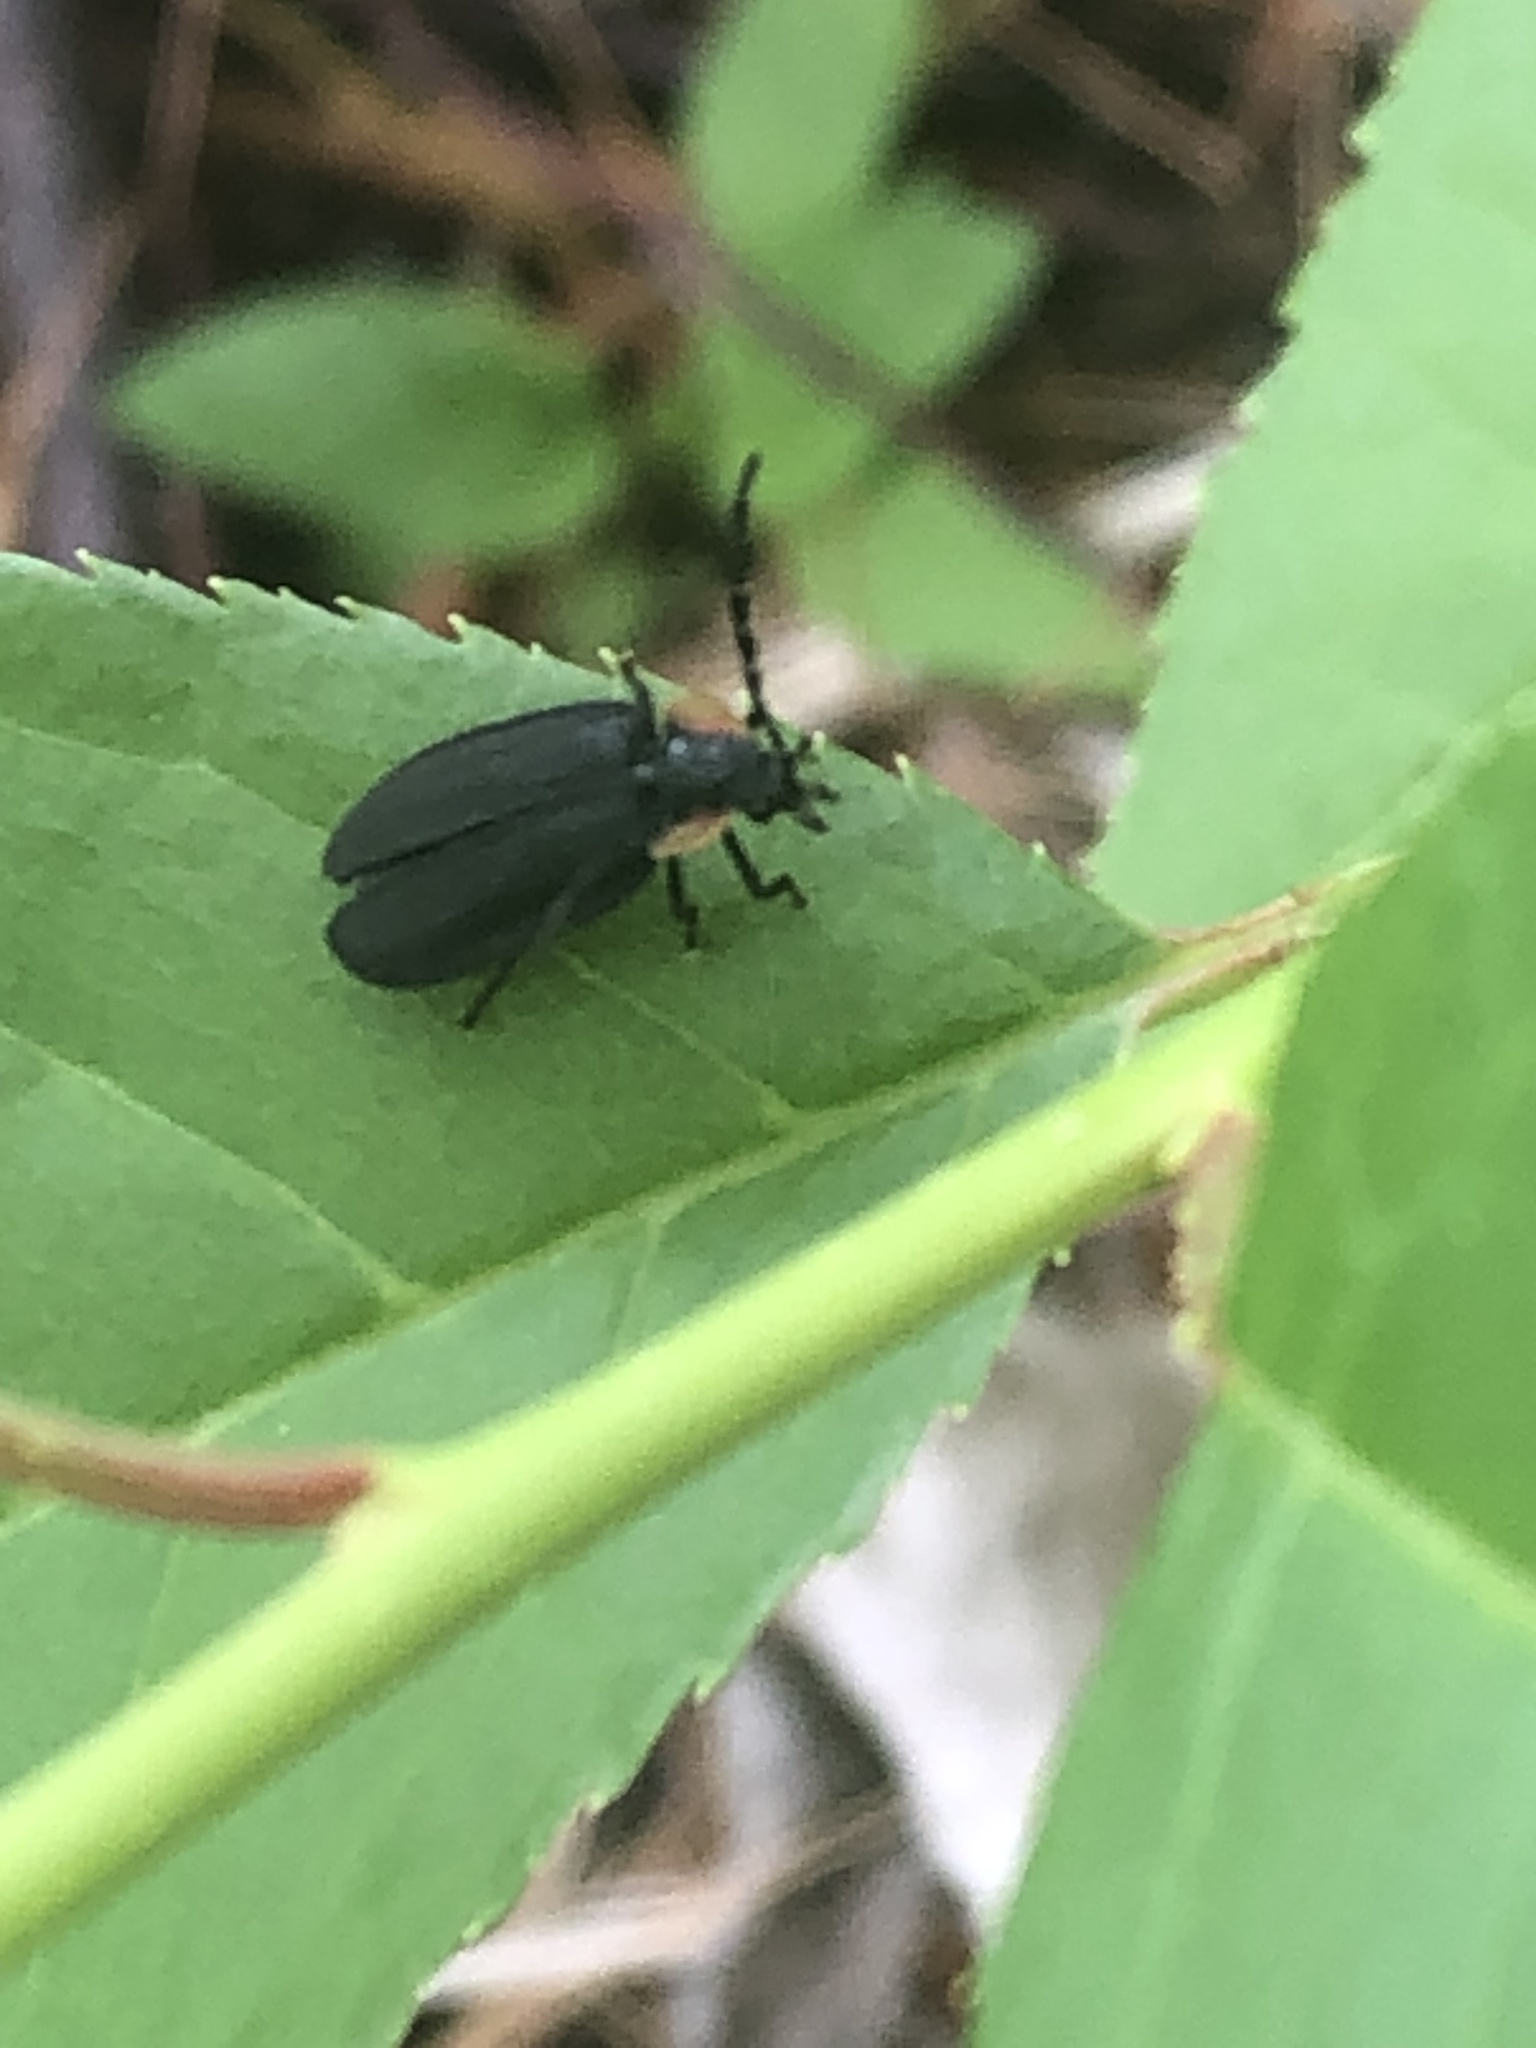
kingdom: Animalia
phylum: Arthropoda
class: Insecta
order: Coleoptera
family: Lampyridae
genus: Lucidota
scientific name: Lucidota atra
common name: Black firefly
